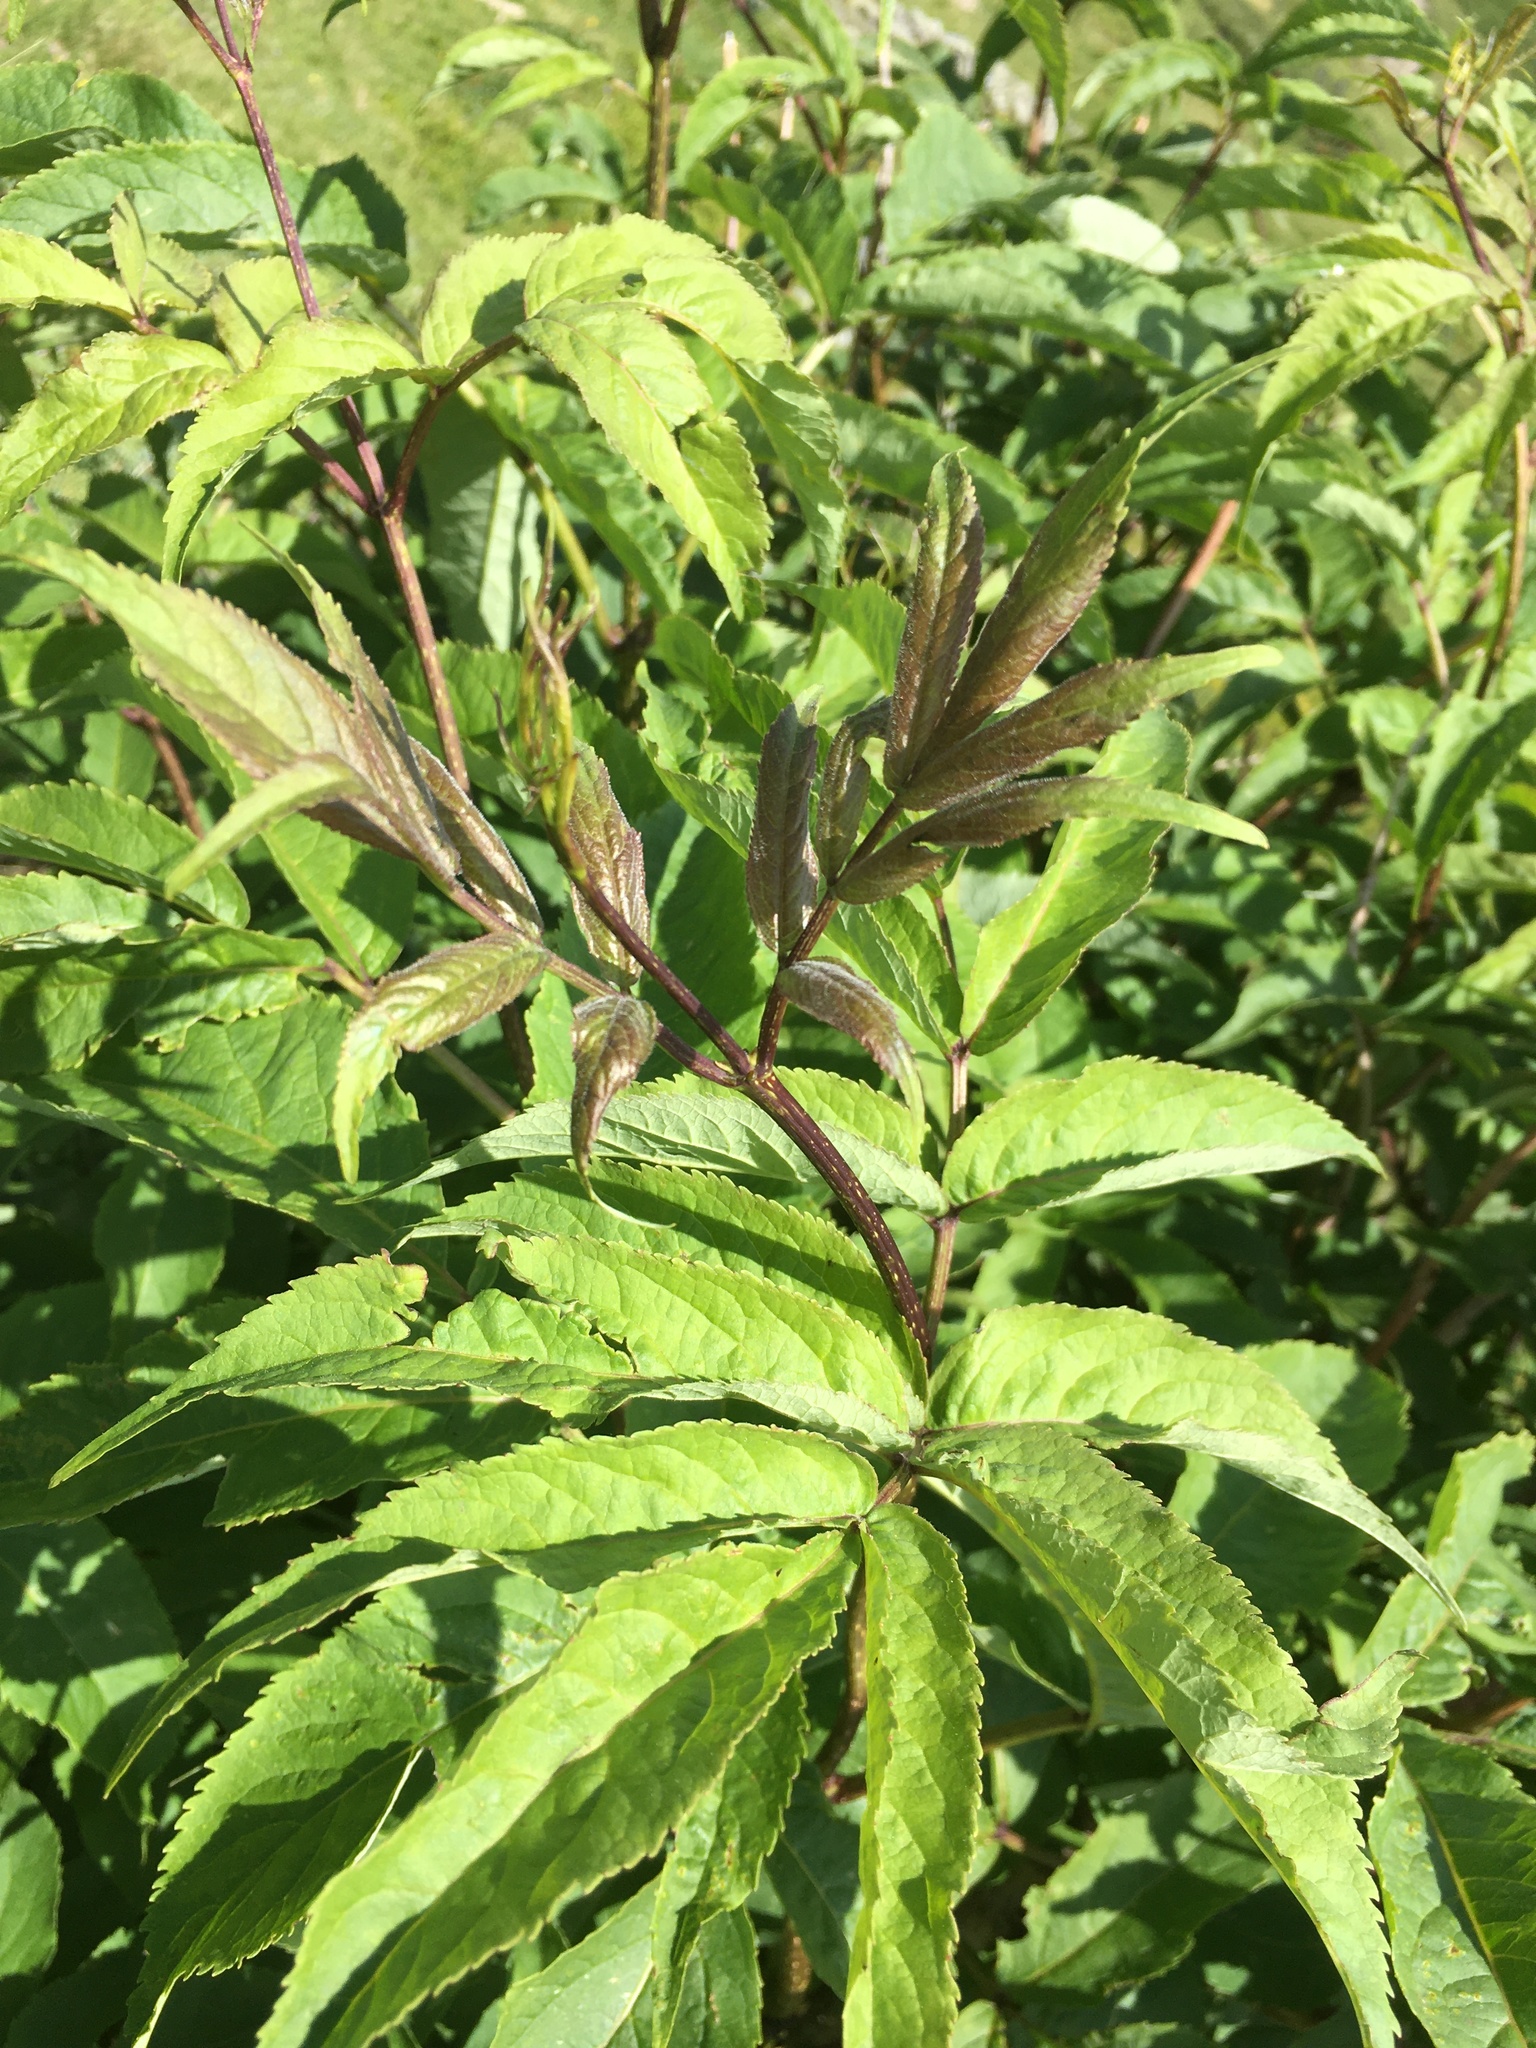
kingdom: Plantae
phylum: Tracheophyta
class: Magnoliopsida
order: Dipsacales
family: Viburnaceae
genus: Sambucus
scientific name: Sambucus racemosa
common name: Red-berried elder
